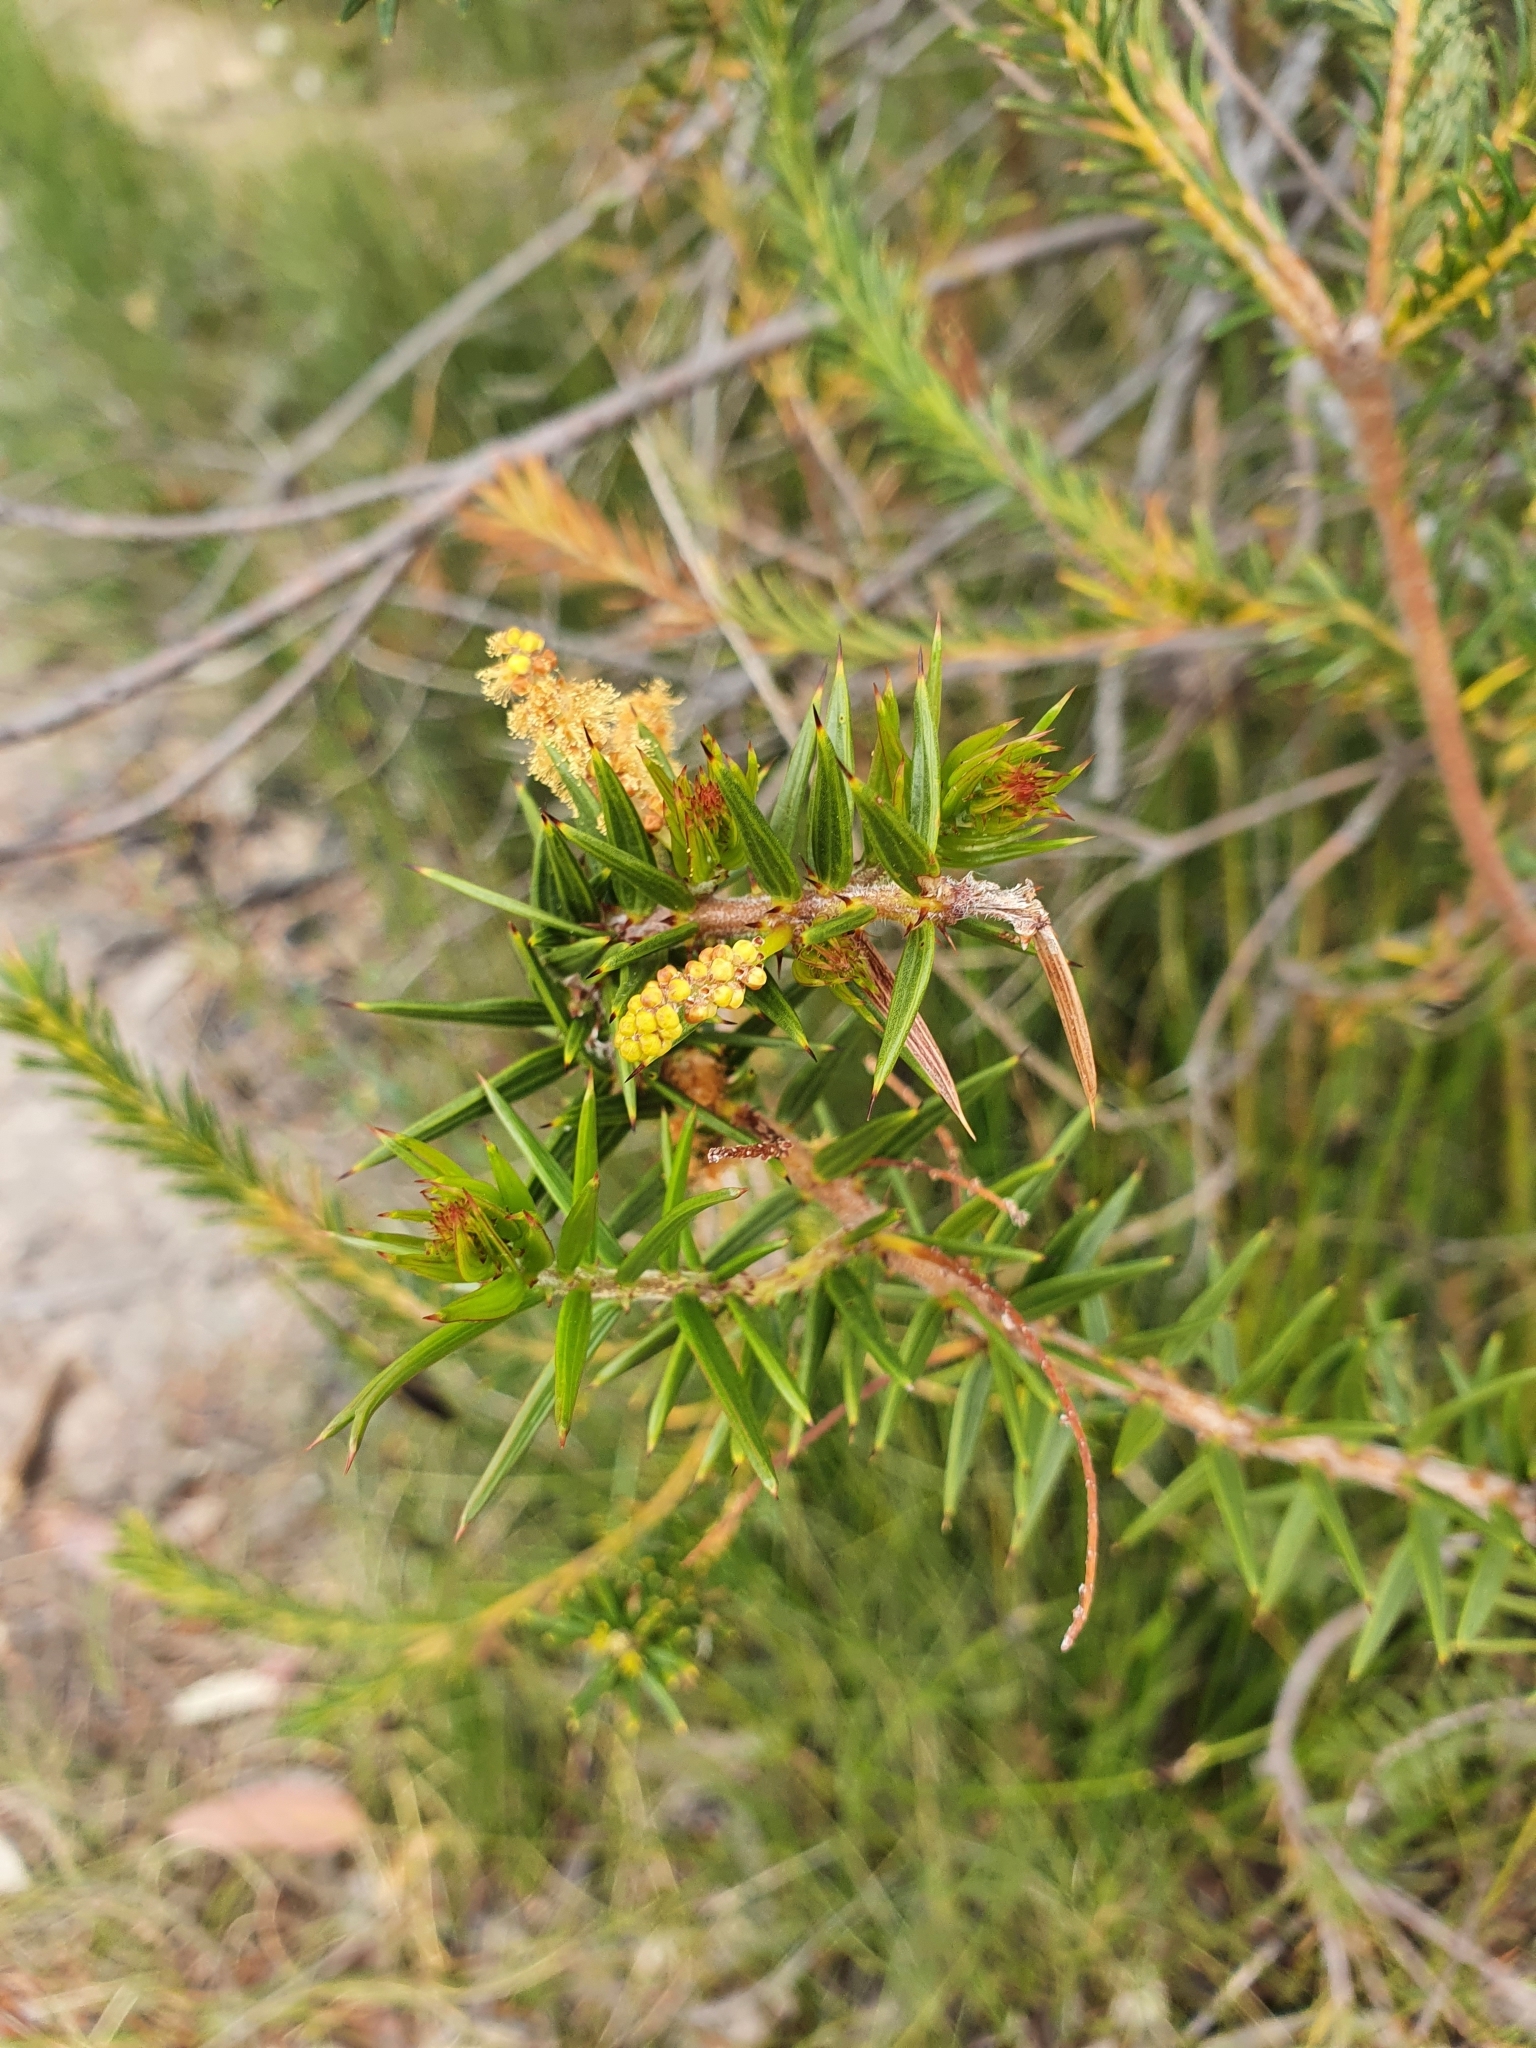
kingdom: Plantae
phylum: Tracheophyta
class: Magnoliopsida
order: Fabales
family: Fabaceae
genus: Acacia
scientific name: Acacia oxycedrus
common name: Spike wattle
